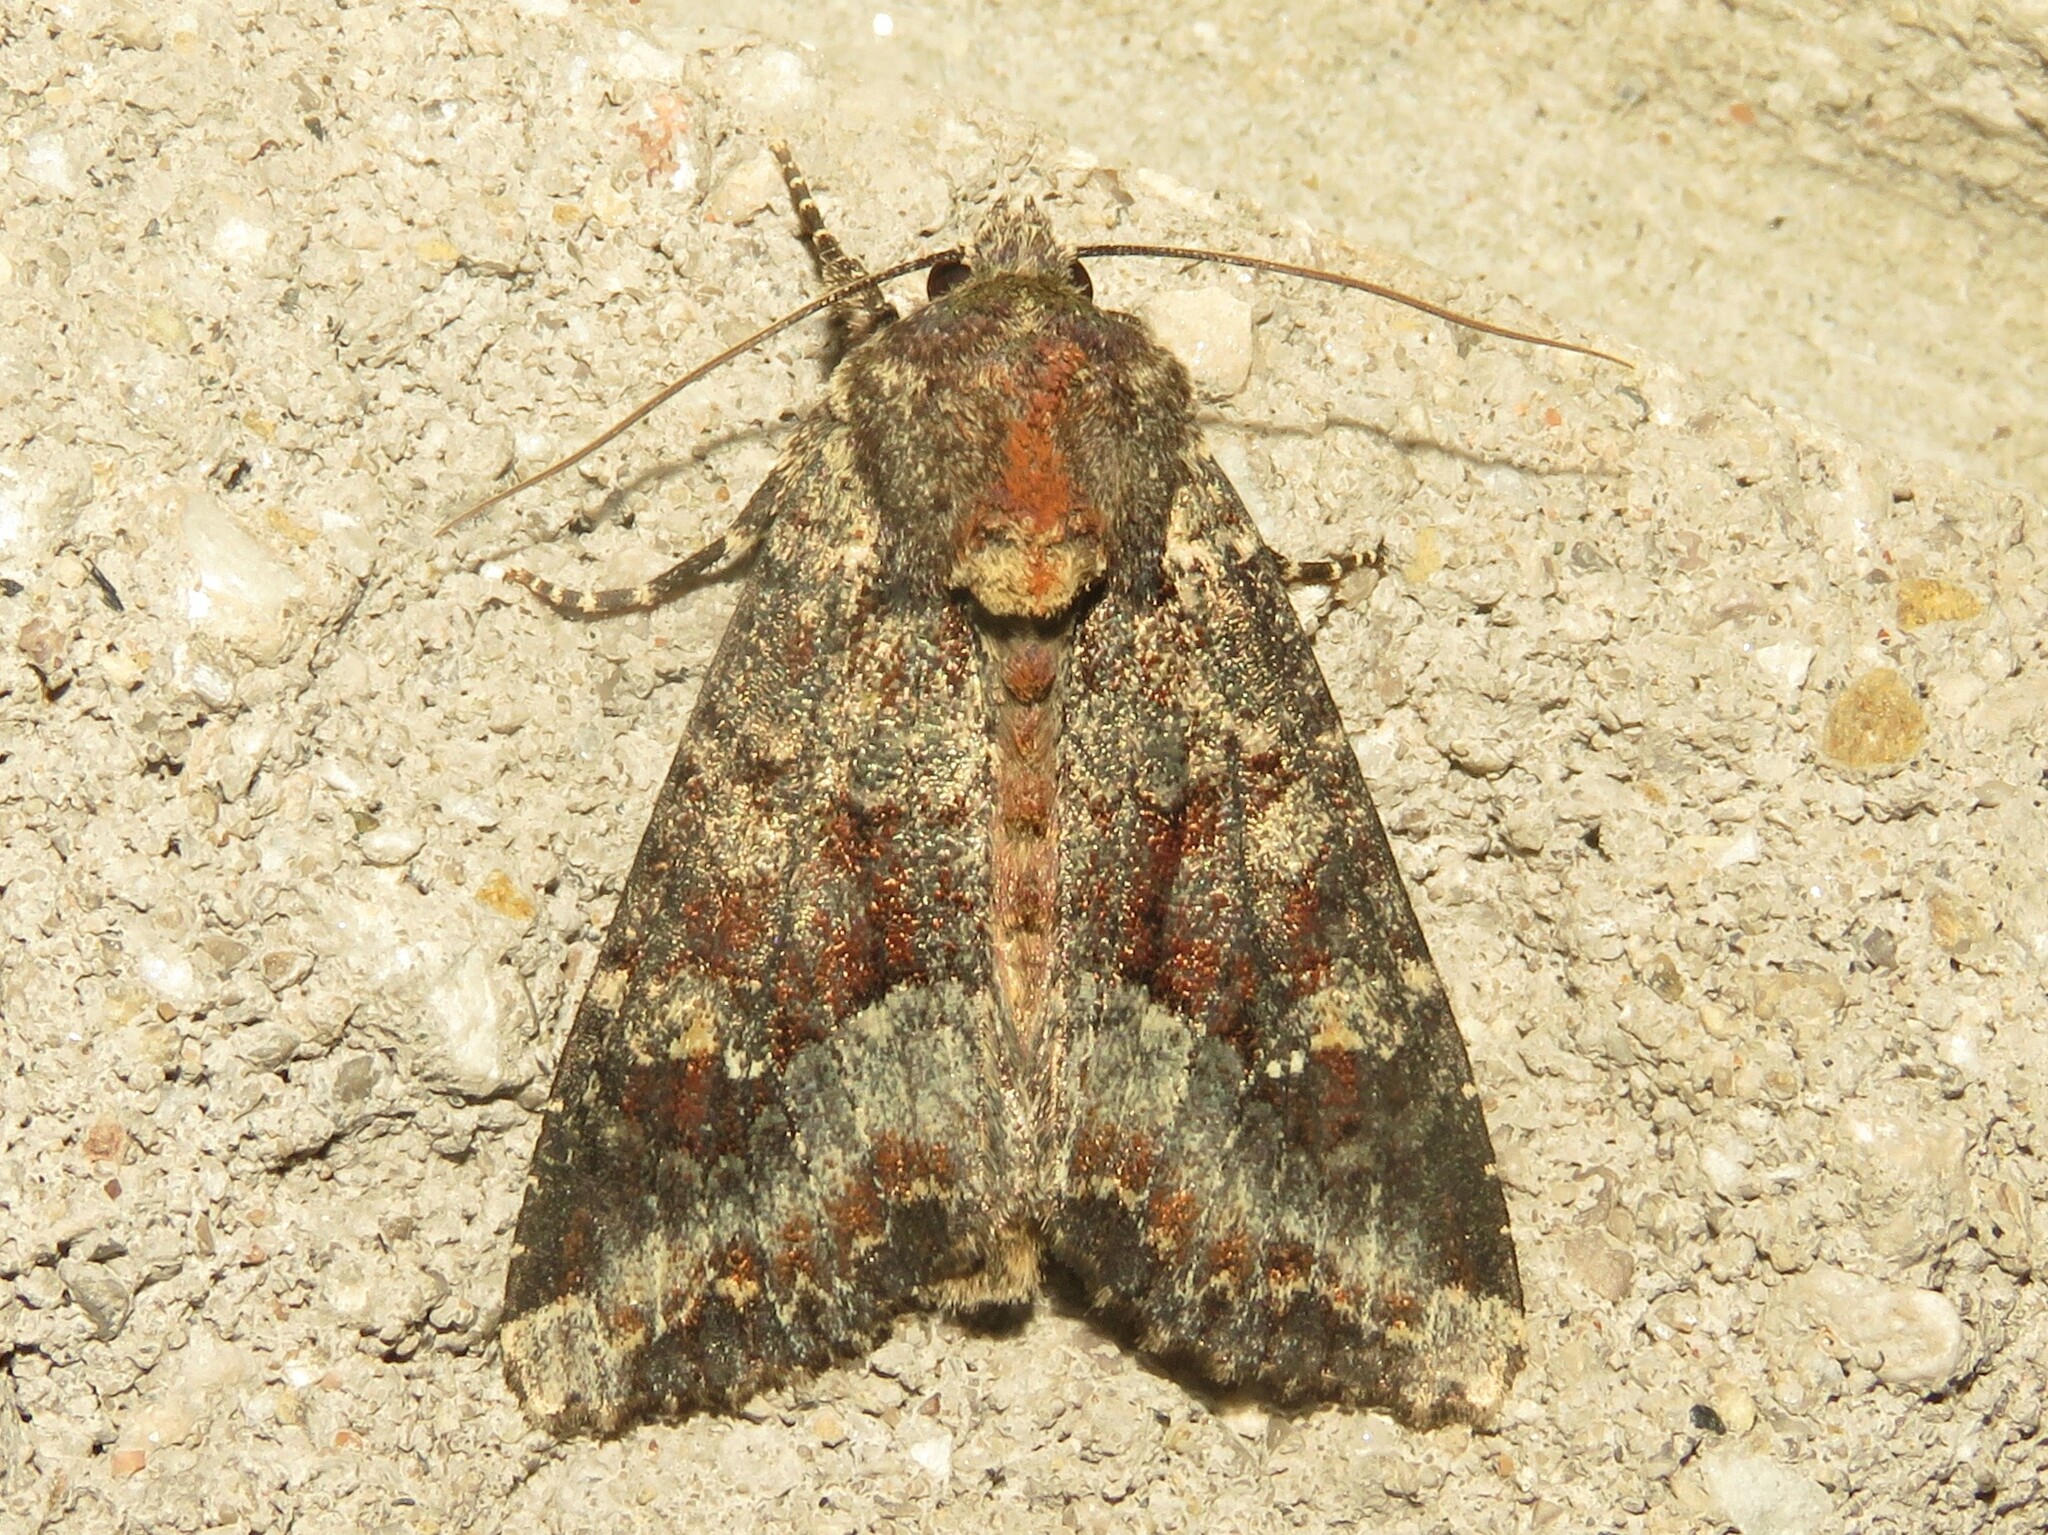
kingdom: Animalia
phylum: Arthropoda
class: Insecta
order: Lepidoptera
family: Noctuidae
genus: Apamea
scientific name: Apamea amputatrix
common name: Yellow-headed cutworm moth
